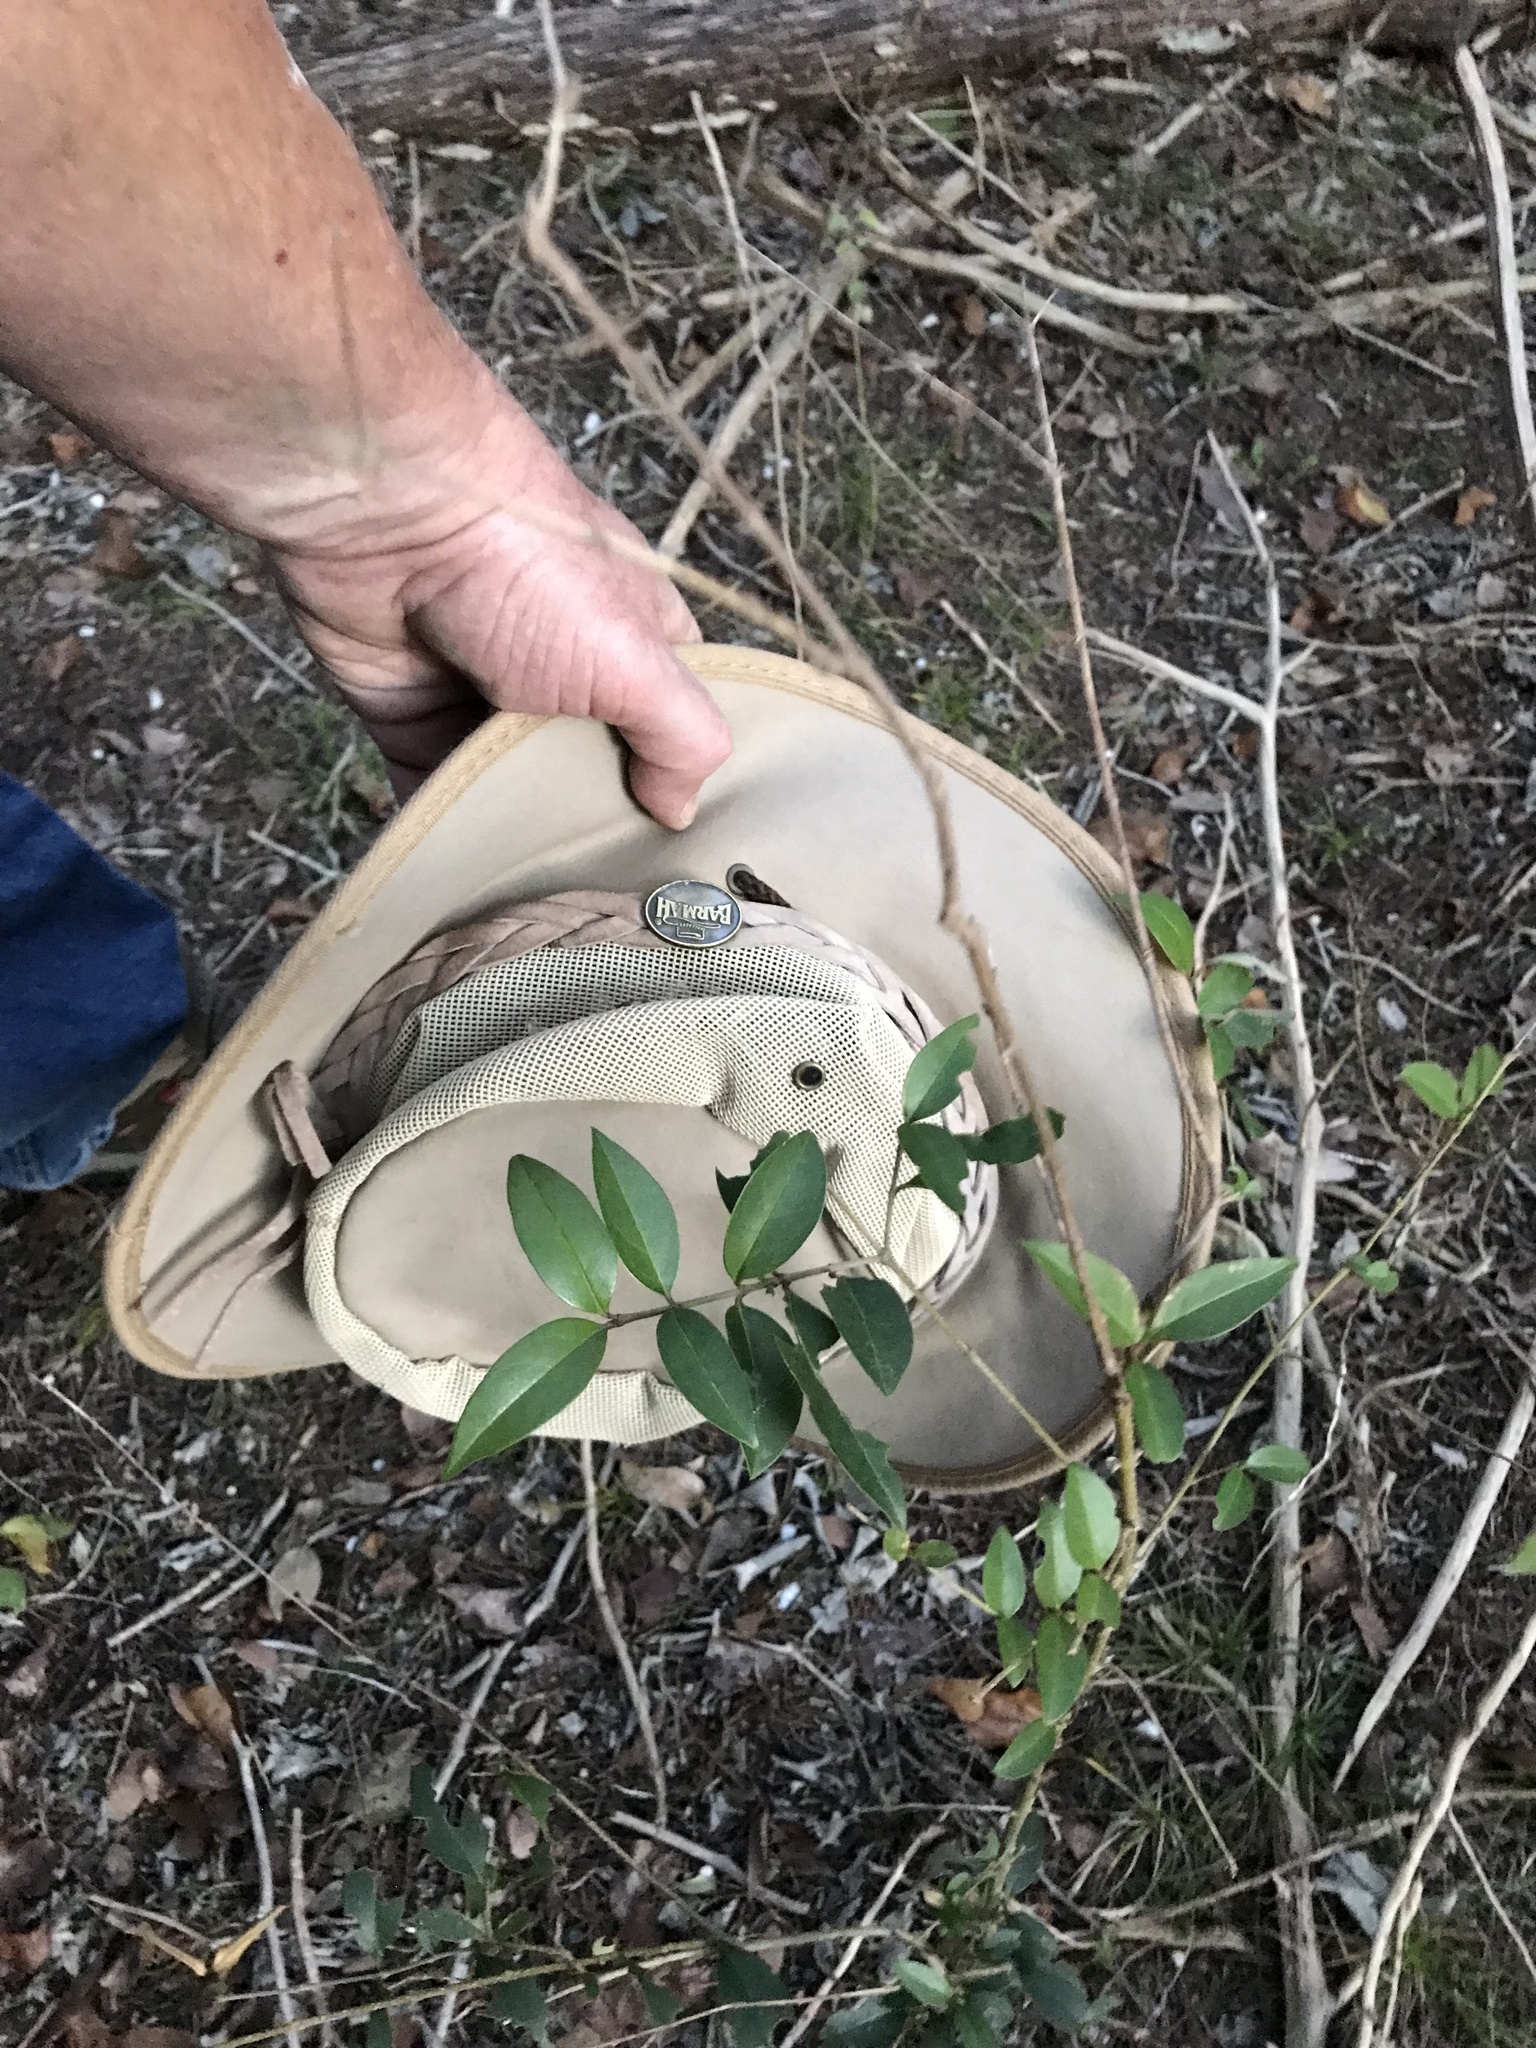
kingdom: Plantae
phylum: Tracheophyta
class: Magnoliopsida
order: Lamiales
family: Oleaceae
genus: Ligustrum
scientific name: Ligustrum lucidum
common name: Glossy privet
